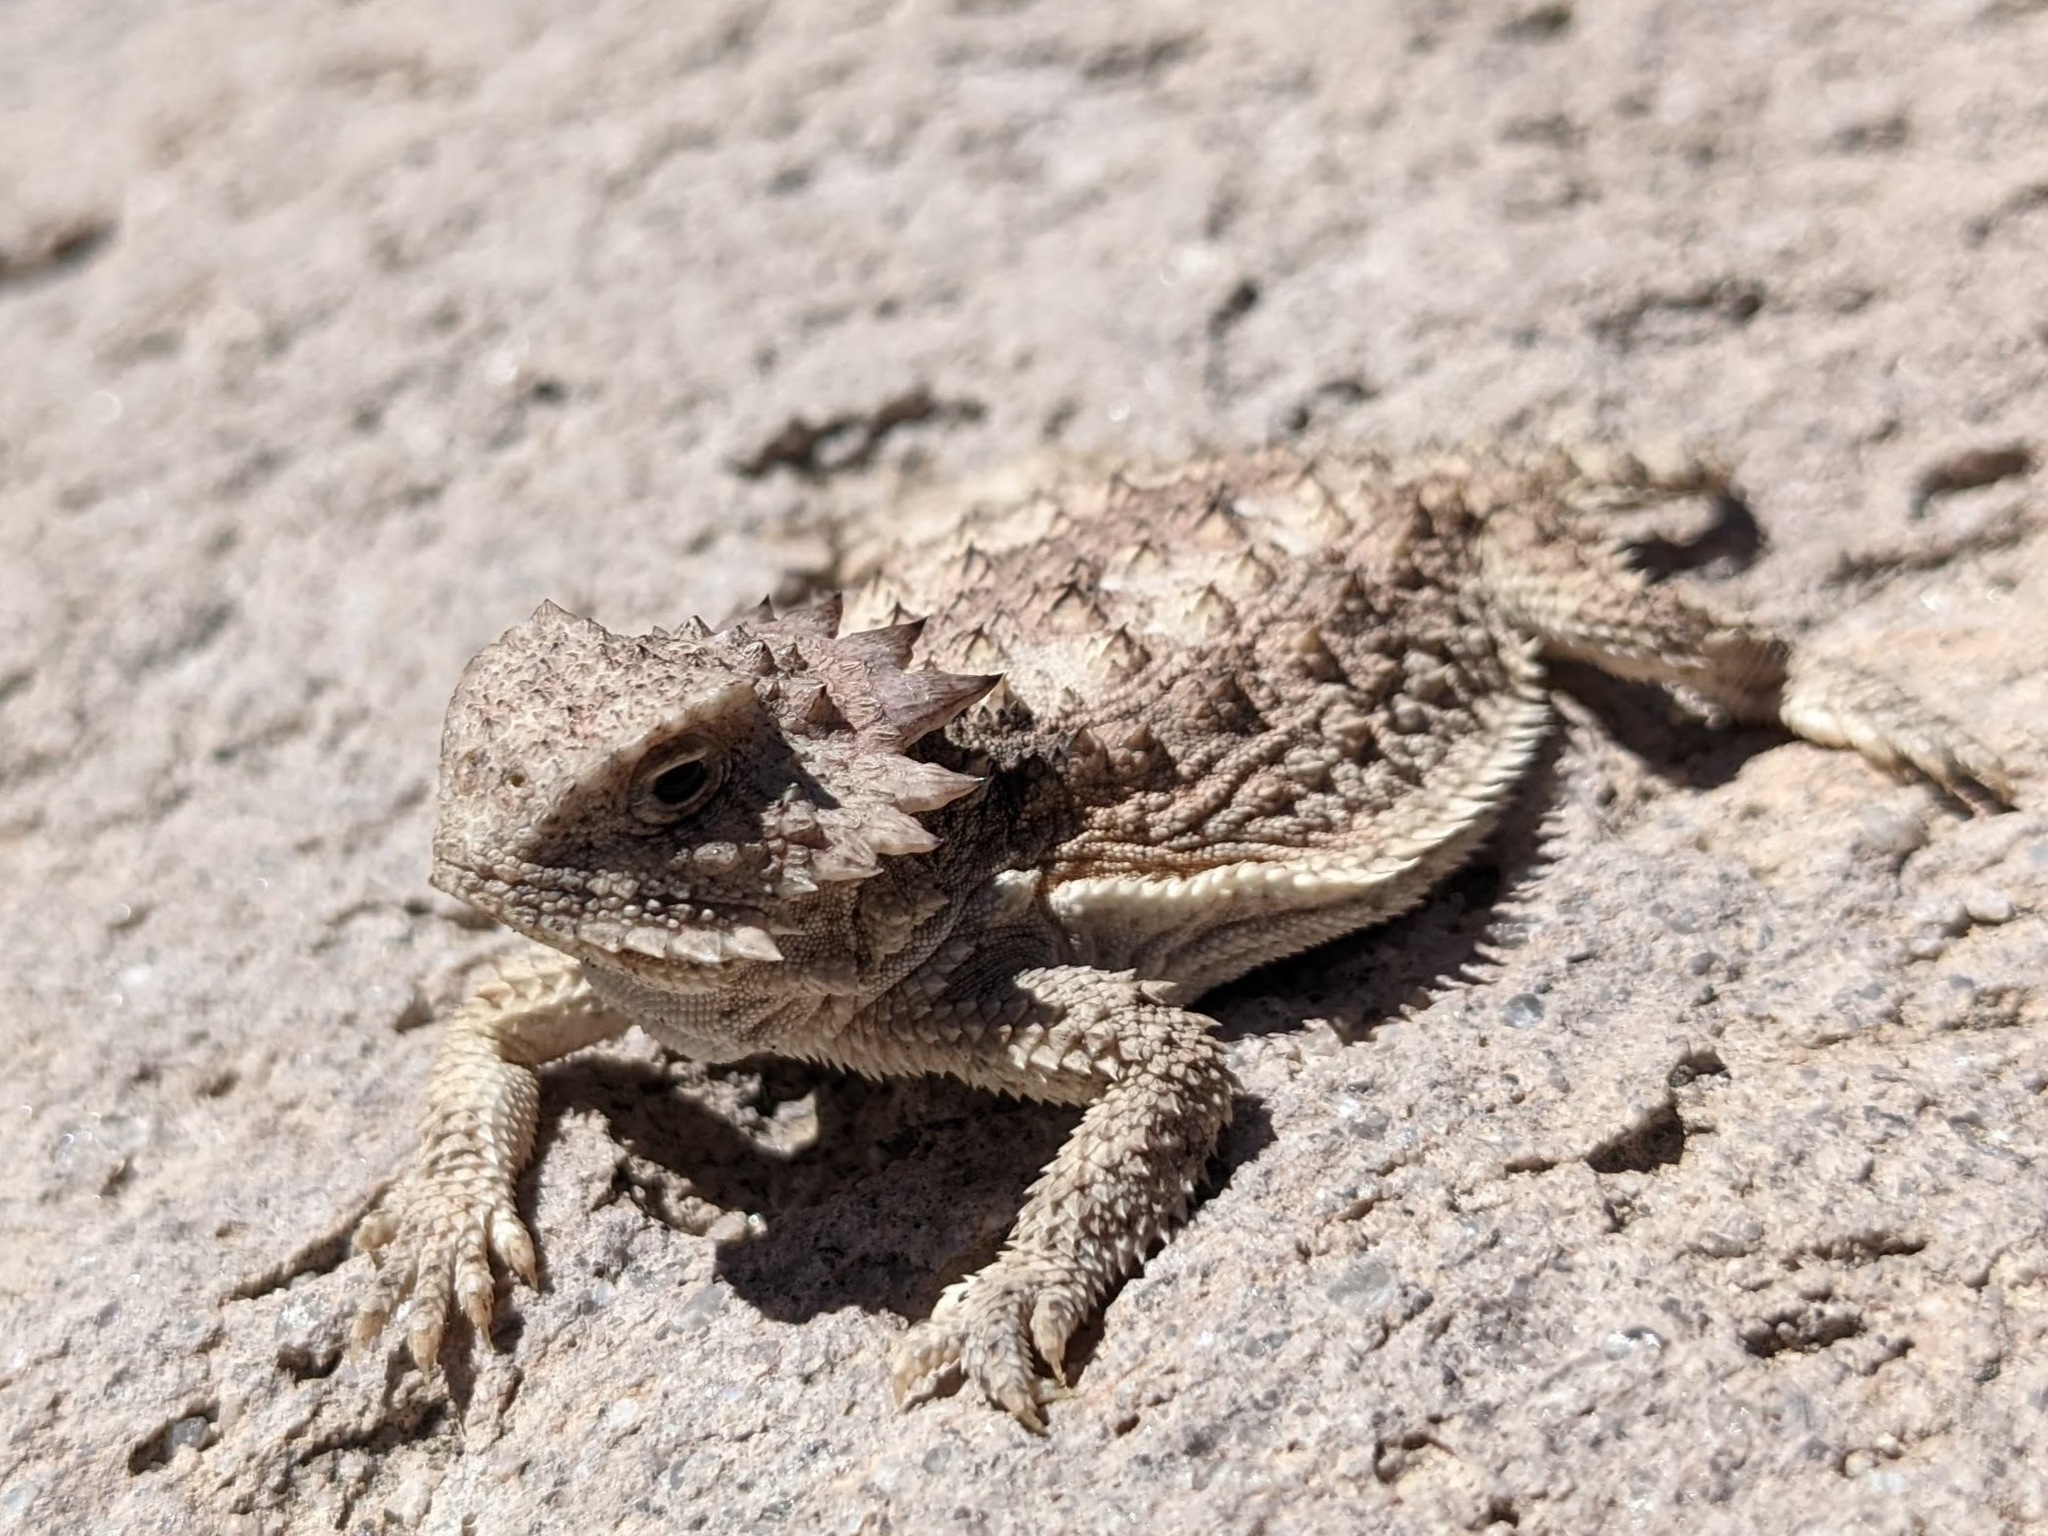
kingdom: Animalia
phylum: Chordata
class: Squamata
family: Phrynosomatidae
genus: Phrynosoma
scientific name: Phrynosoma solare
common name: Regal horned lizard
